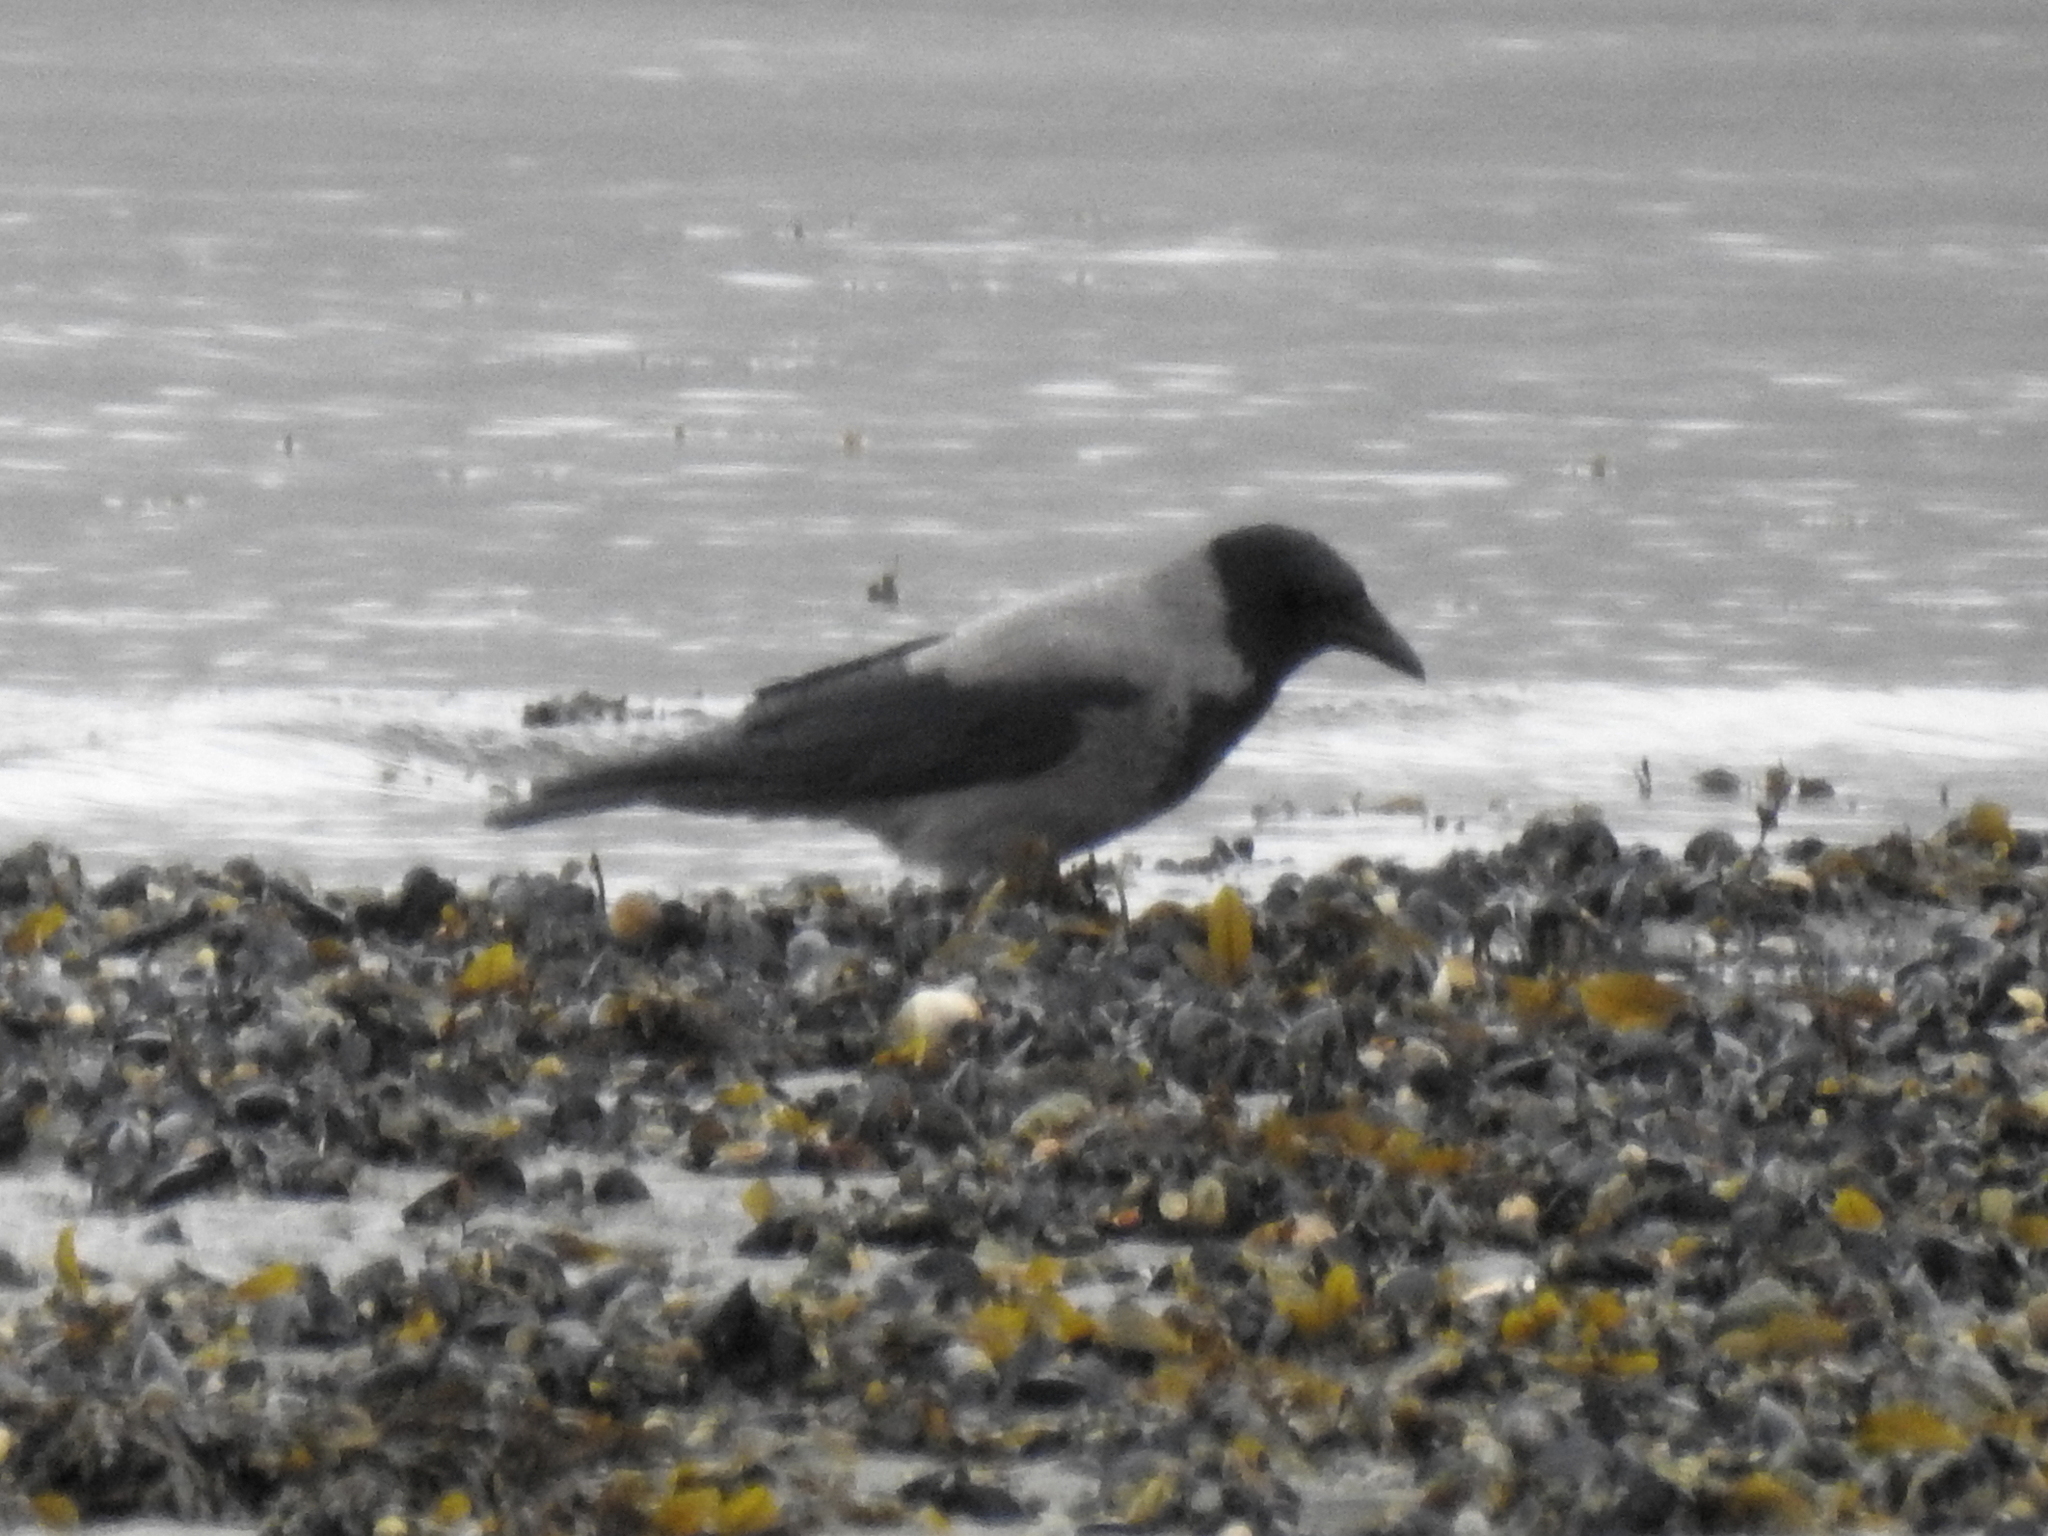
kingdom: Animalia
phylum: Chordata
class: Aves
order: Passeriformes
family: Corvidae
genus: Corvus
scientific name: Corvus cornix
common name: Hooded crow
